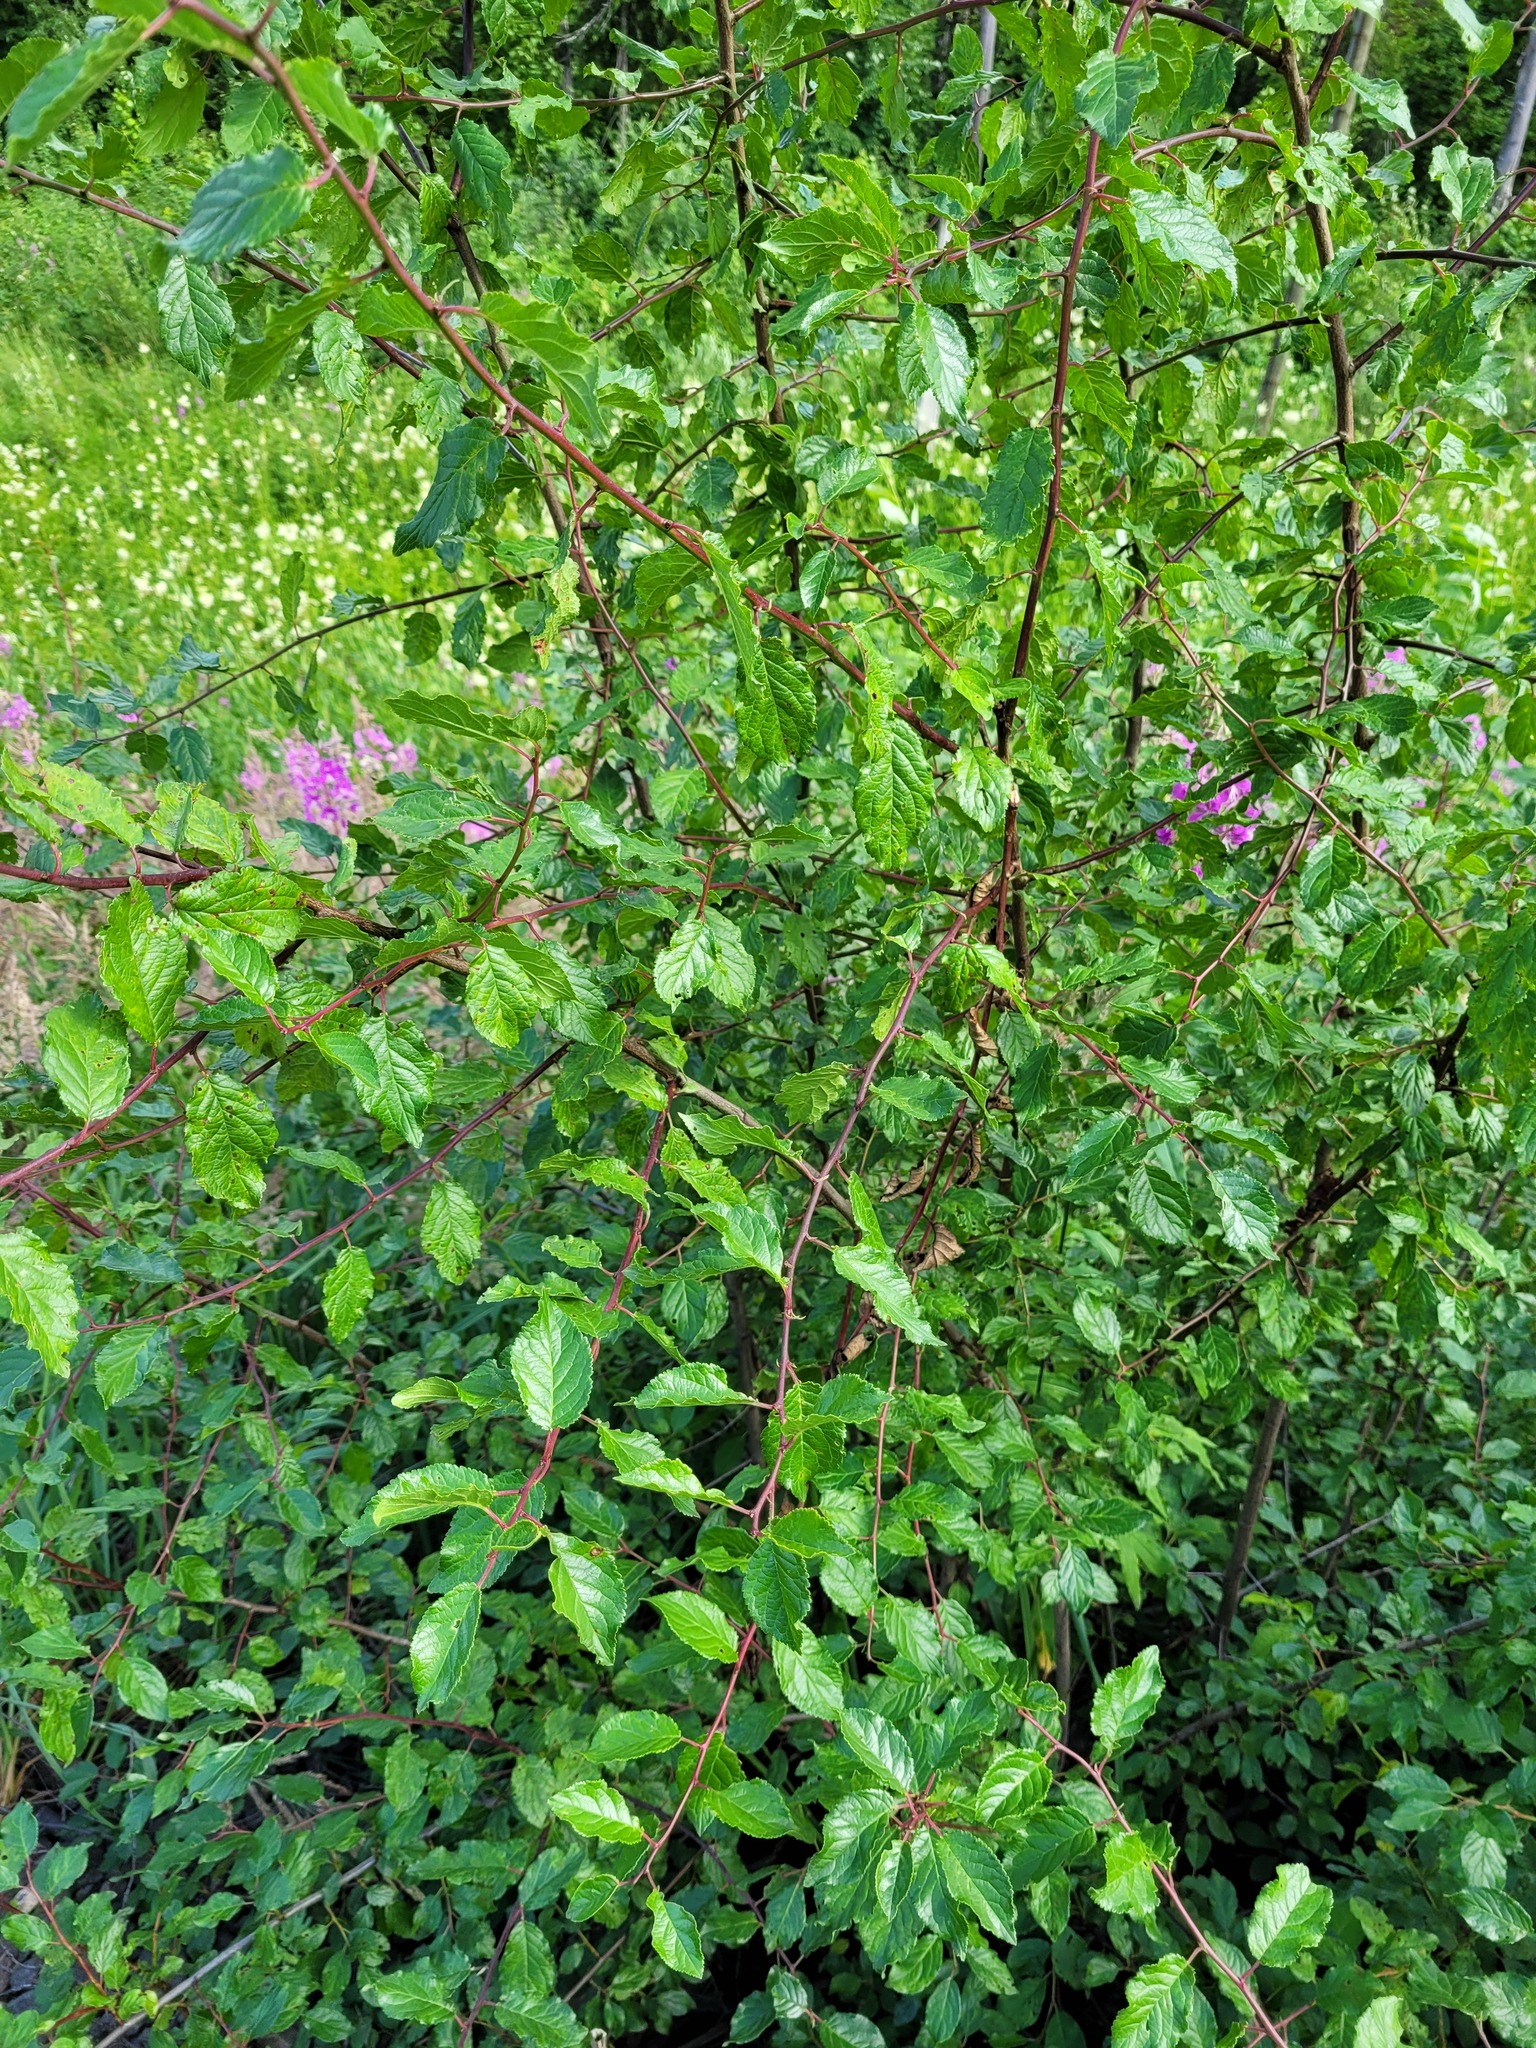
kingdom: Plantae
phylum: Tracheophyta
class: Magnoliopsida
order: Rosales
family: Rosaceae
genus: Prunus
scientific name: Prunus cerasifera
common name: Cherry plum
